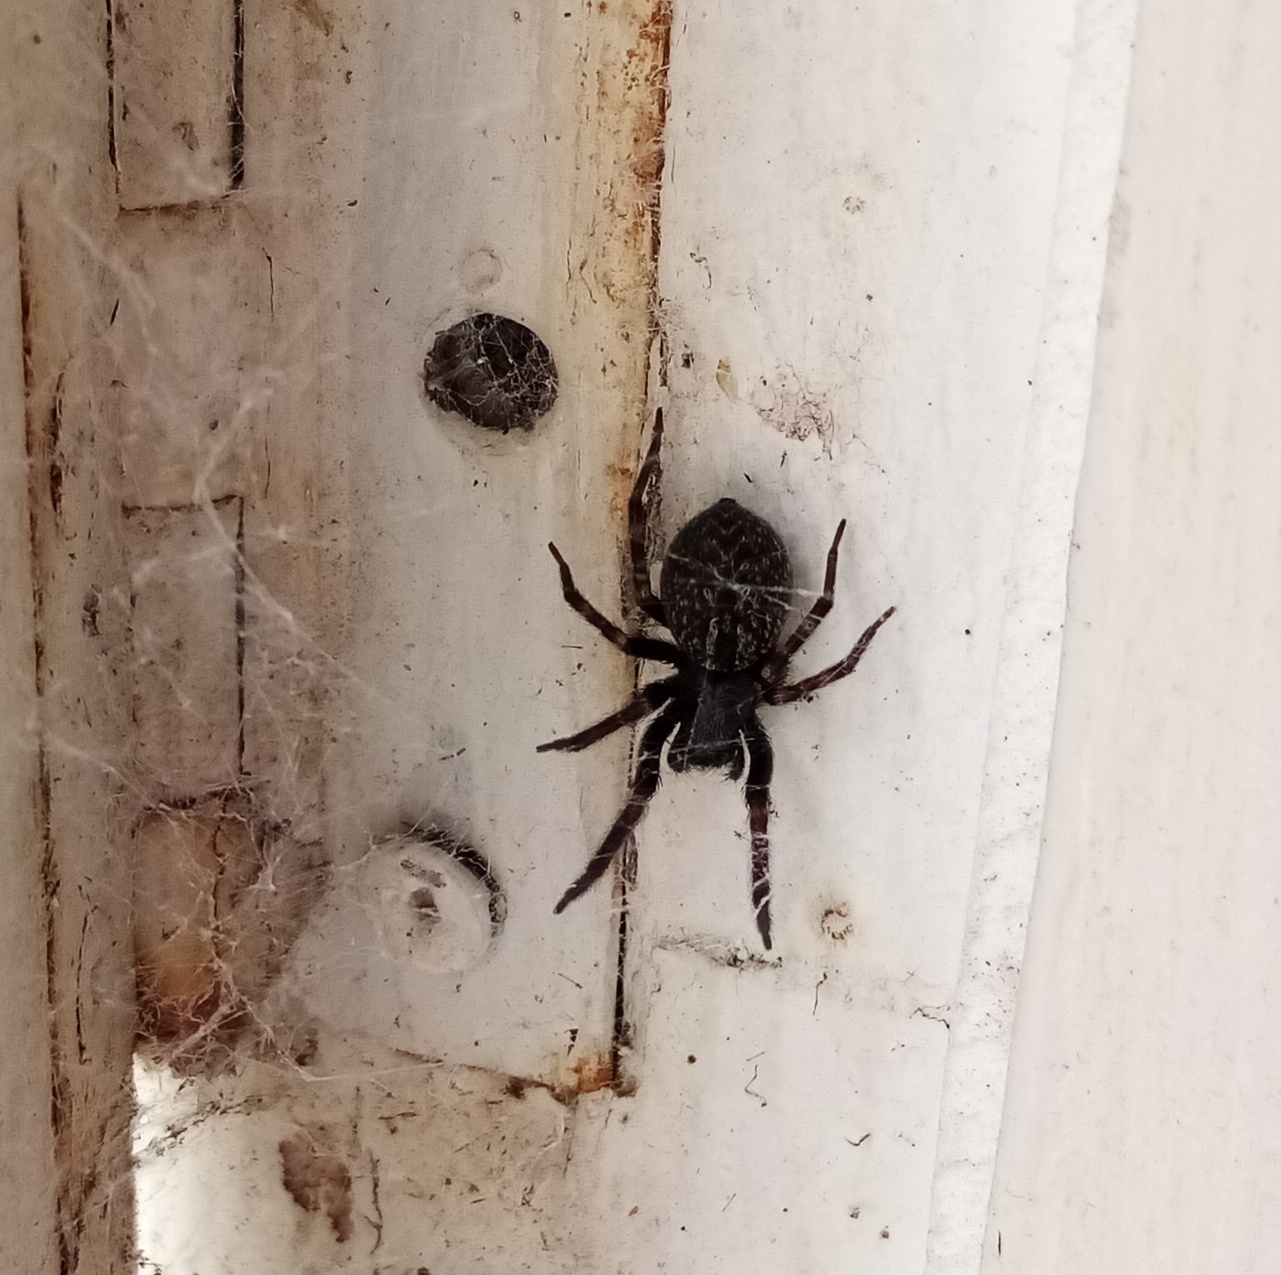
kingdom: Animalia
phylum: Arthropoda
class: Arachnida
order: Araneae
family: Desidae
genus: Badumna
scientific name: Badumna insignis
